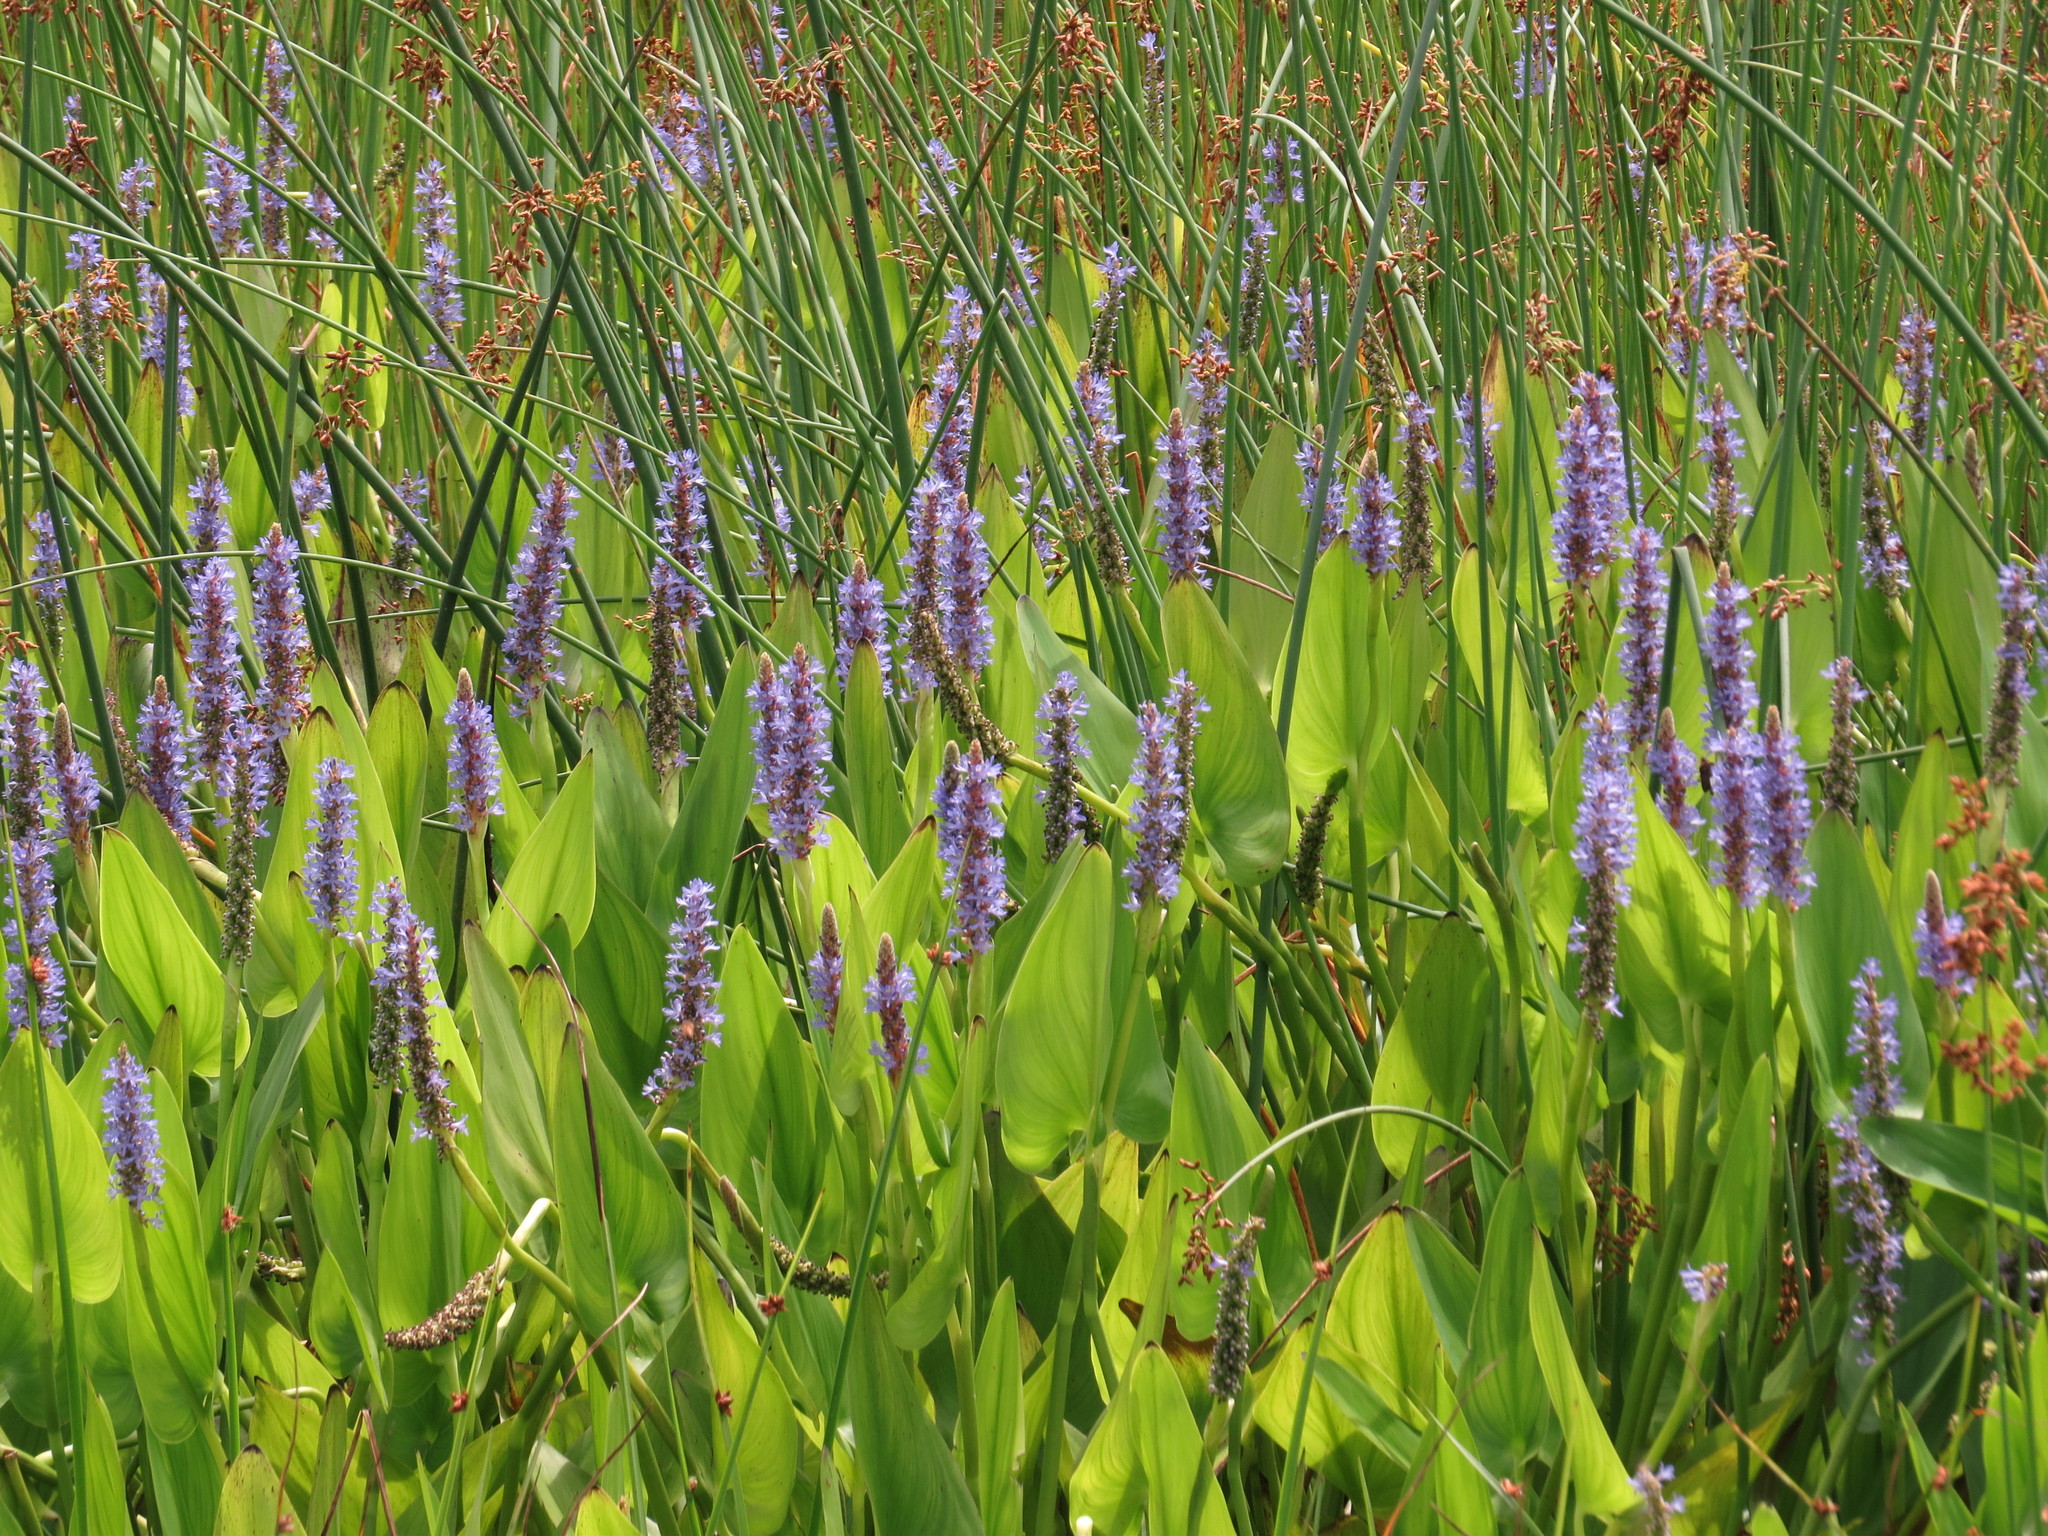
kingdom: Plantae
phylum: Tracheophyta
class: Liliopsida
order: Commelinales
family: Pontederiaceae
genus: Pontederia
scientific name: Pontederia cordata
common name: Pickerelweed
